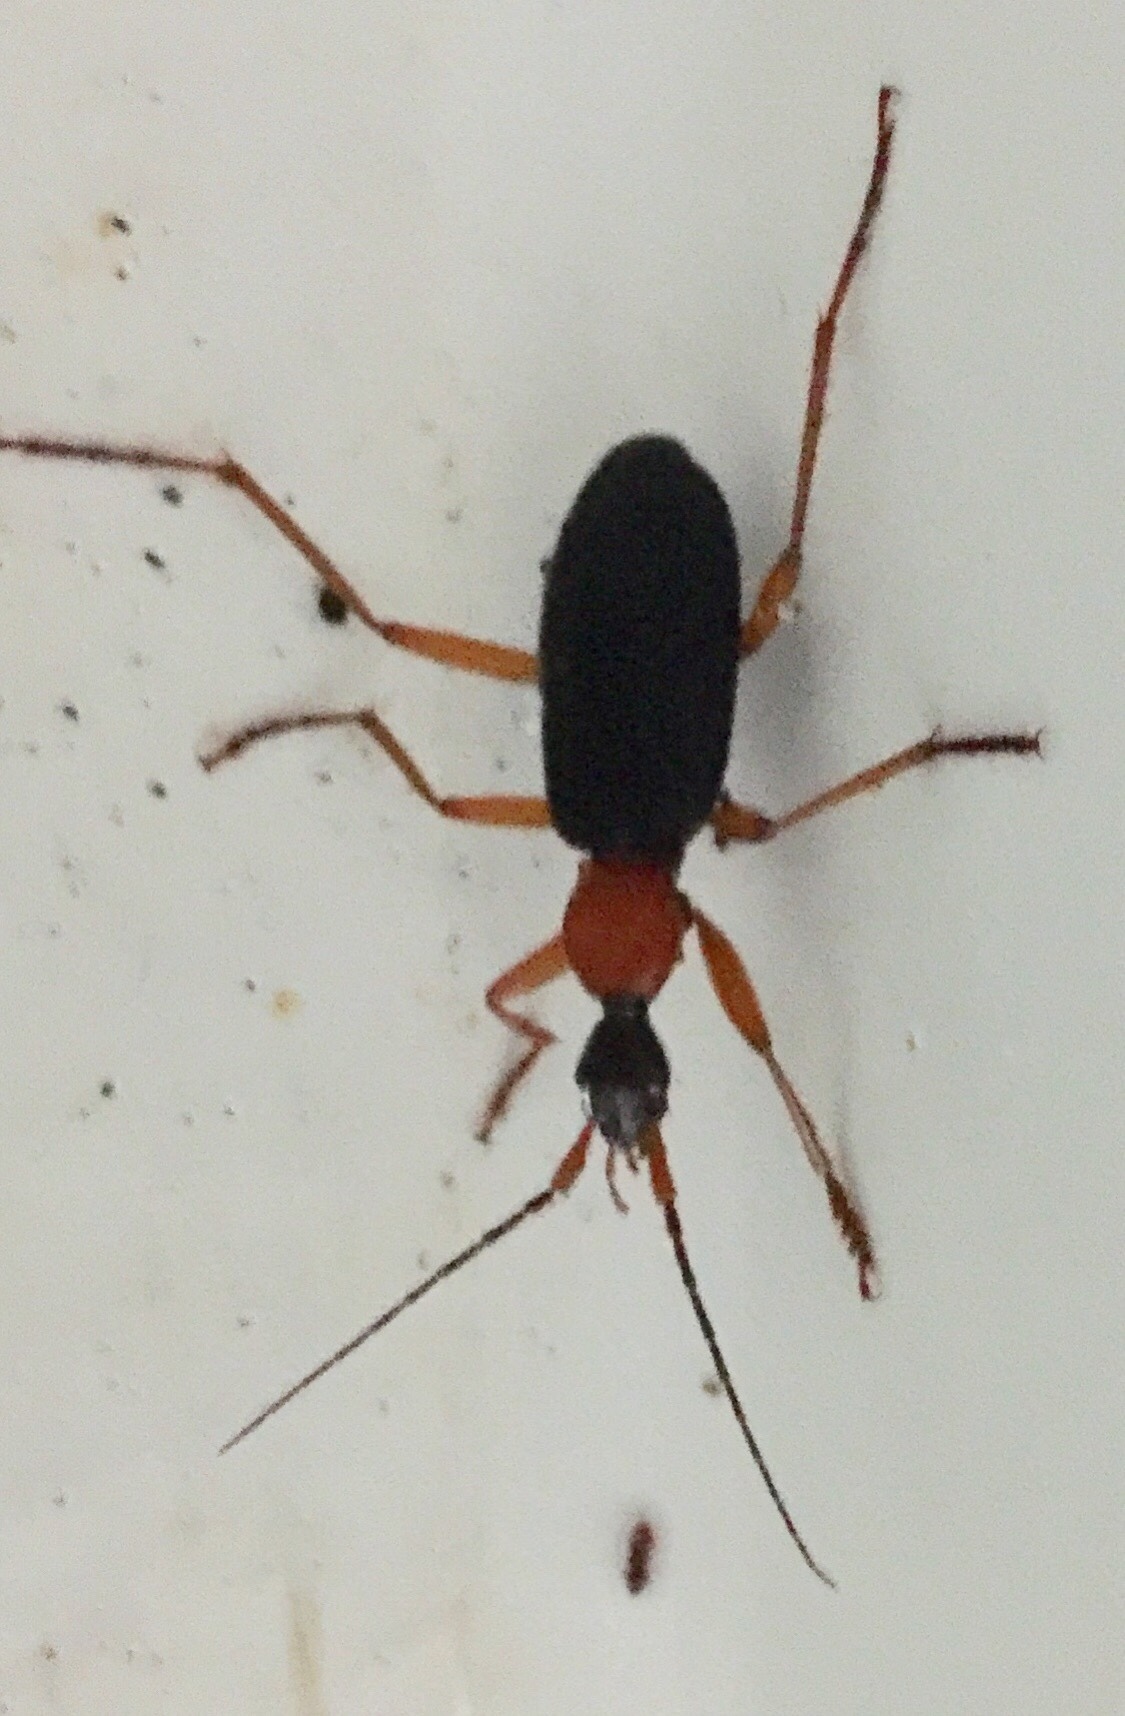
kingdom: Animalia
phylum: Arthropoda
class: Insecta
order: Coleoptera
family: Carabidae
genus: Galerita
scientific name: Galerita bicolor
